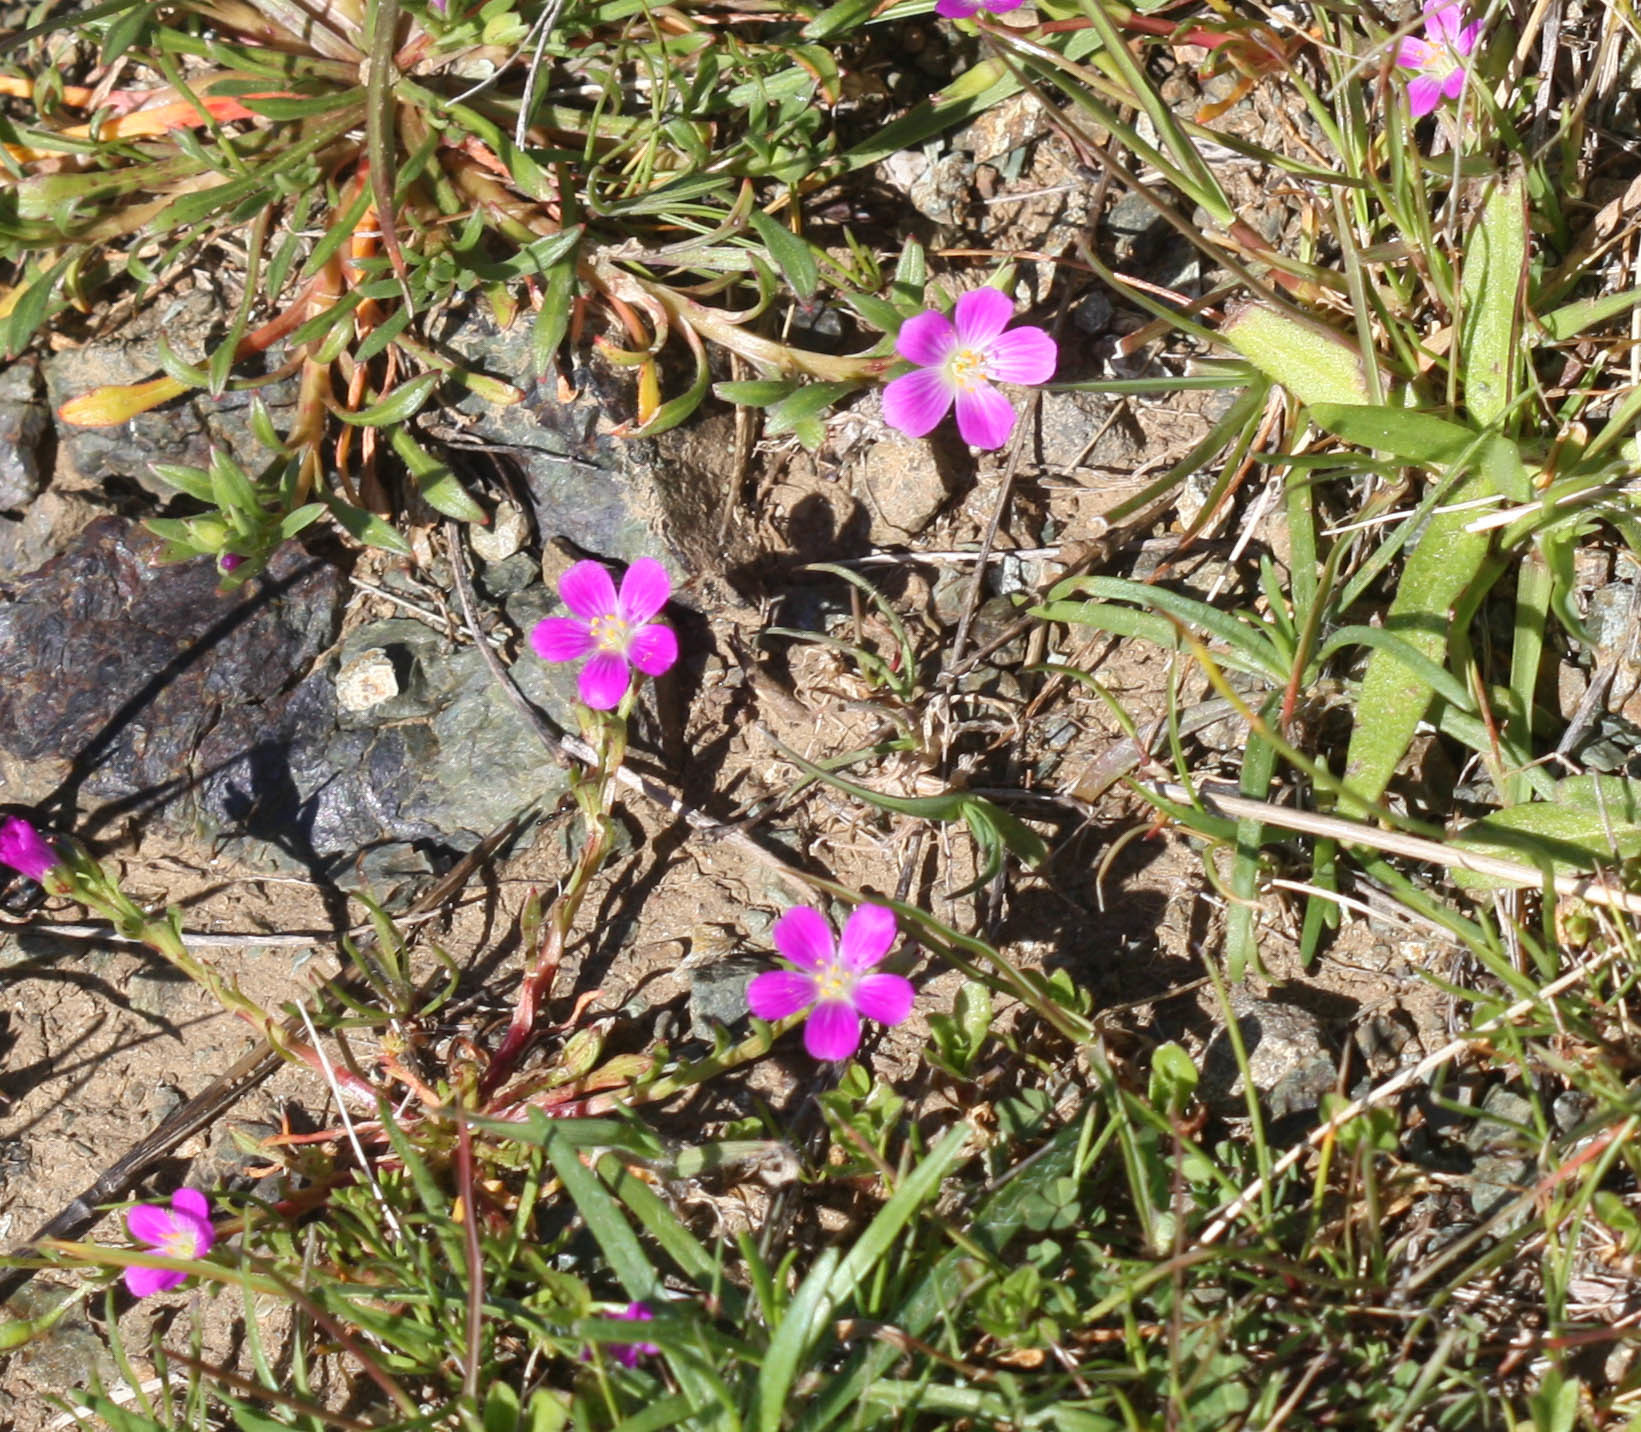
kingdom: Plantae
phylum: Tracheophyta
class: Magnoliopsida
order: Caryophyllales
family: Montiaceae
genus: Calandrinia
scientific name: Calandrinia menziesii
